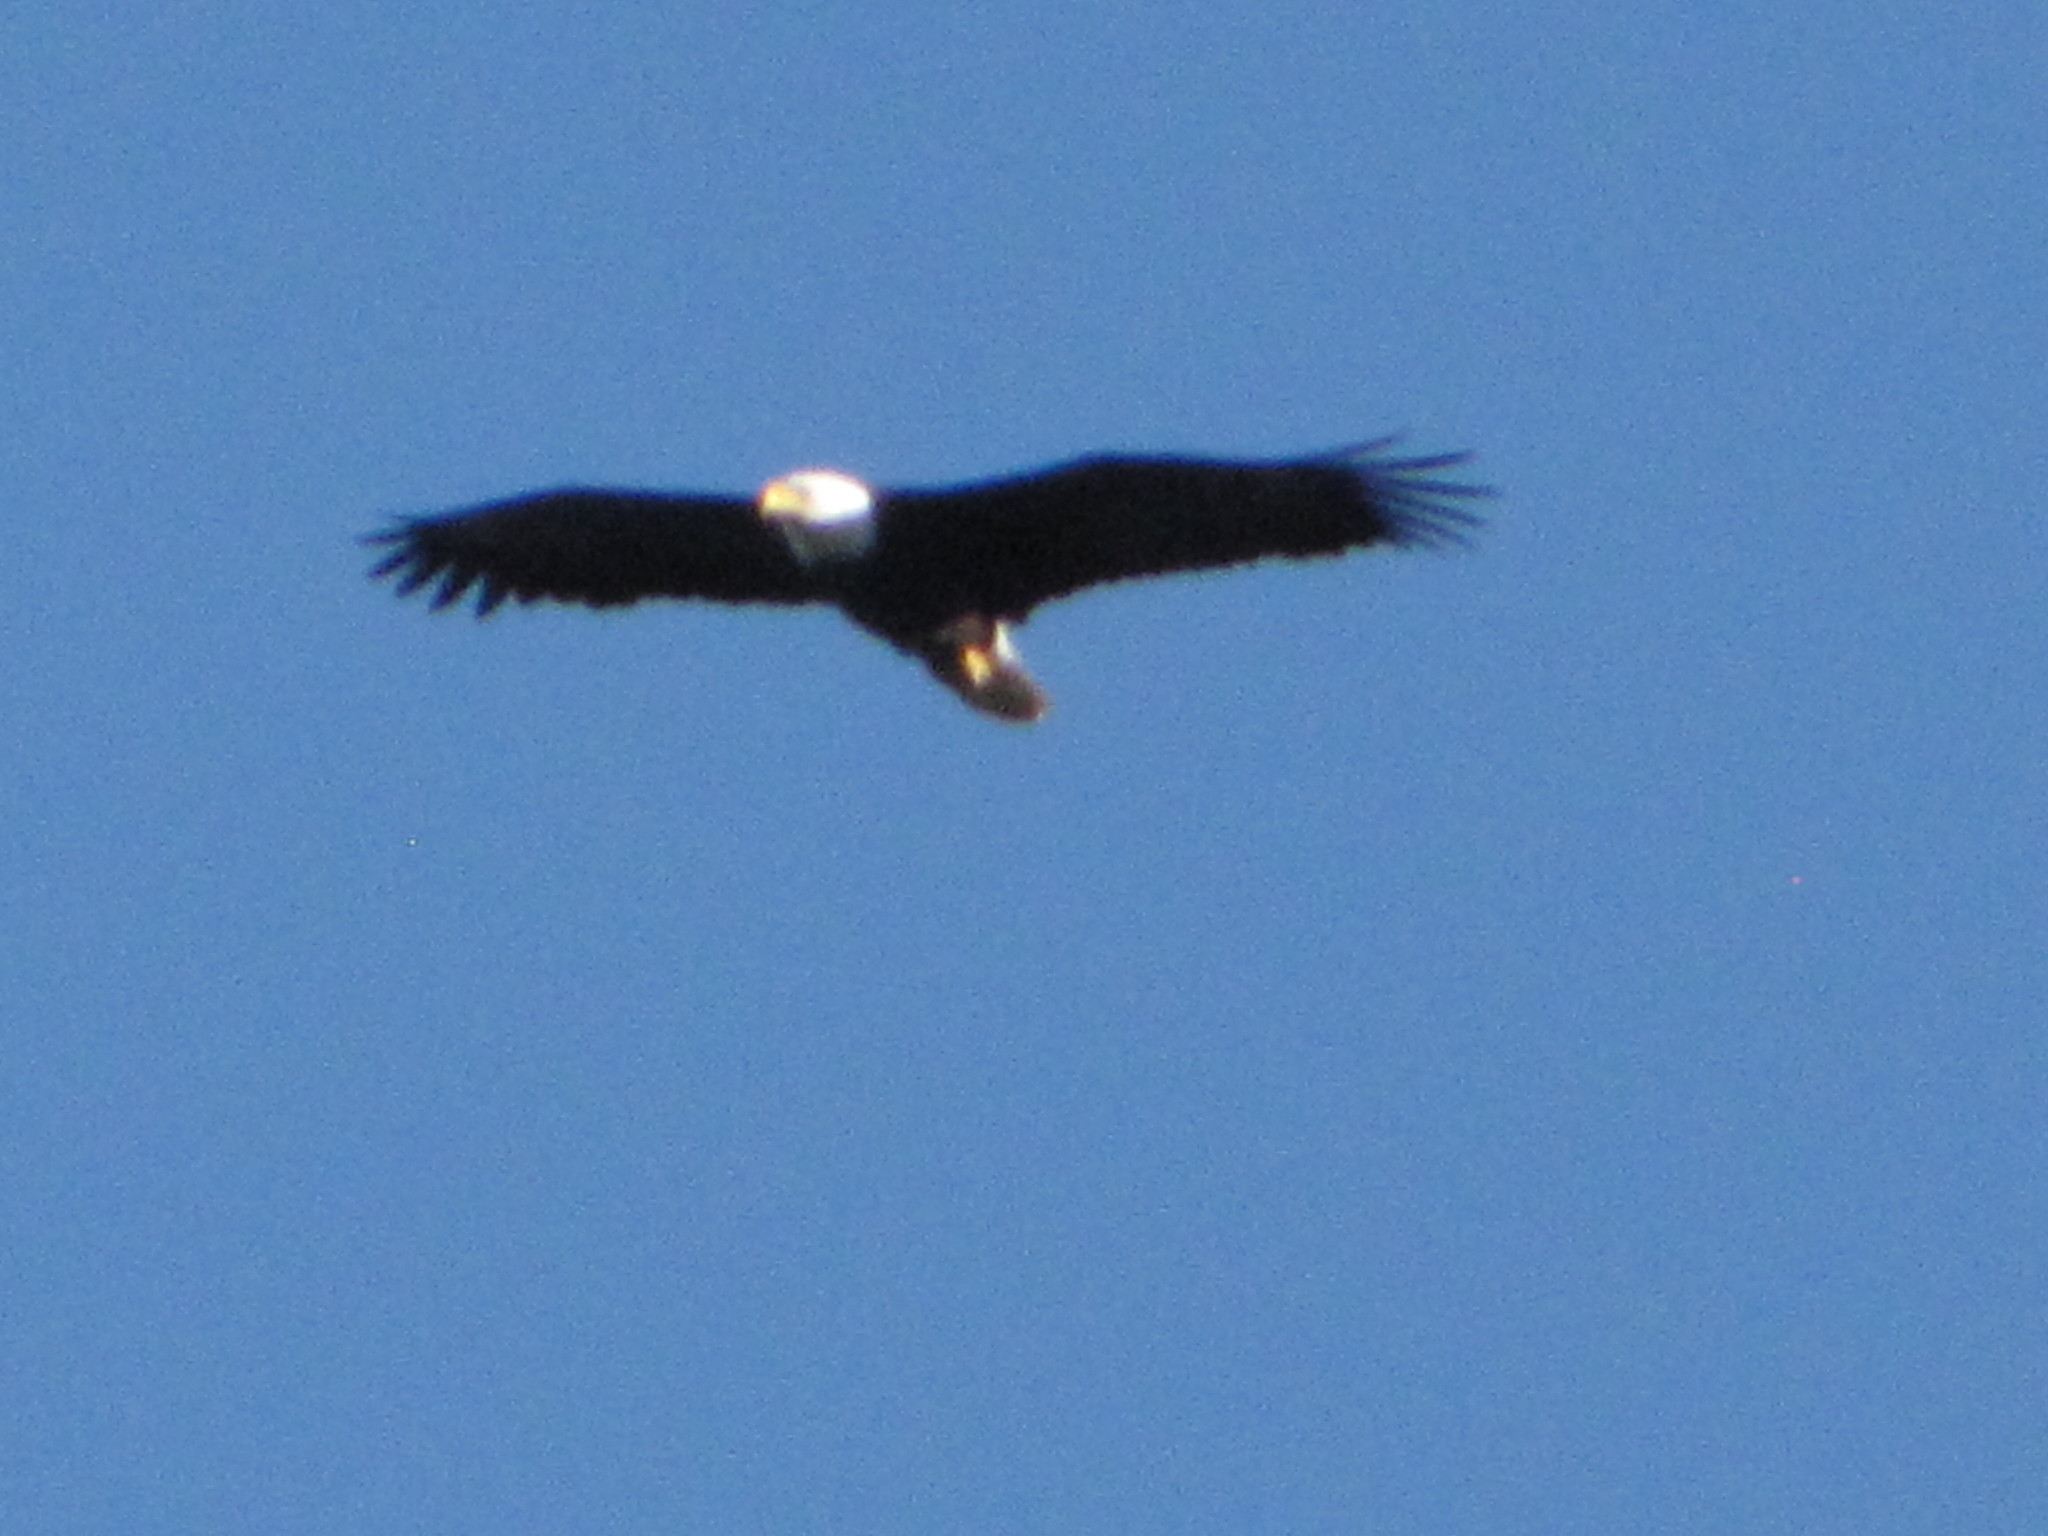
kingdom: Animalia
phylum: Chordata
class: Aves
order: Accipitriformes
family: Accipitridae
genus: Haliaeetus
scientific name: Haliaeetus leucocephalus
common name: Bald eagle
